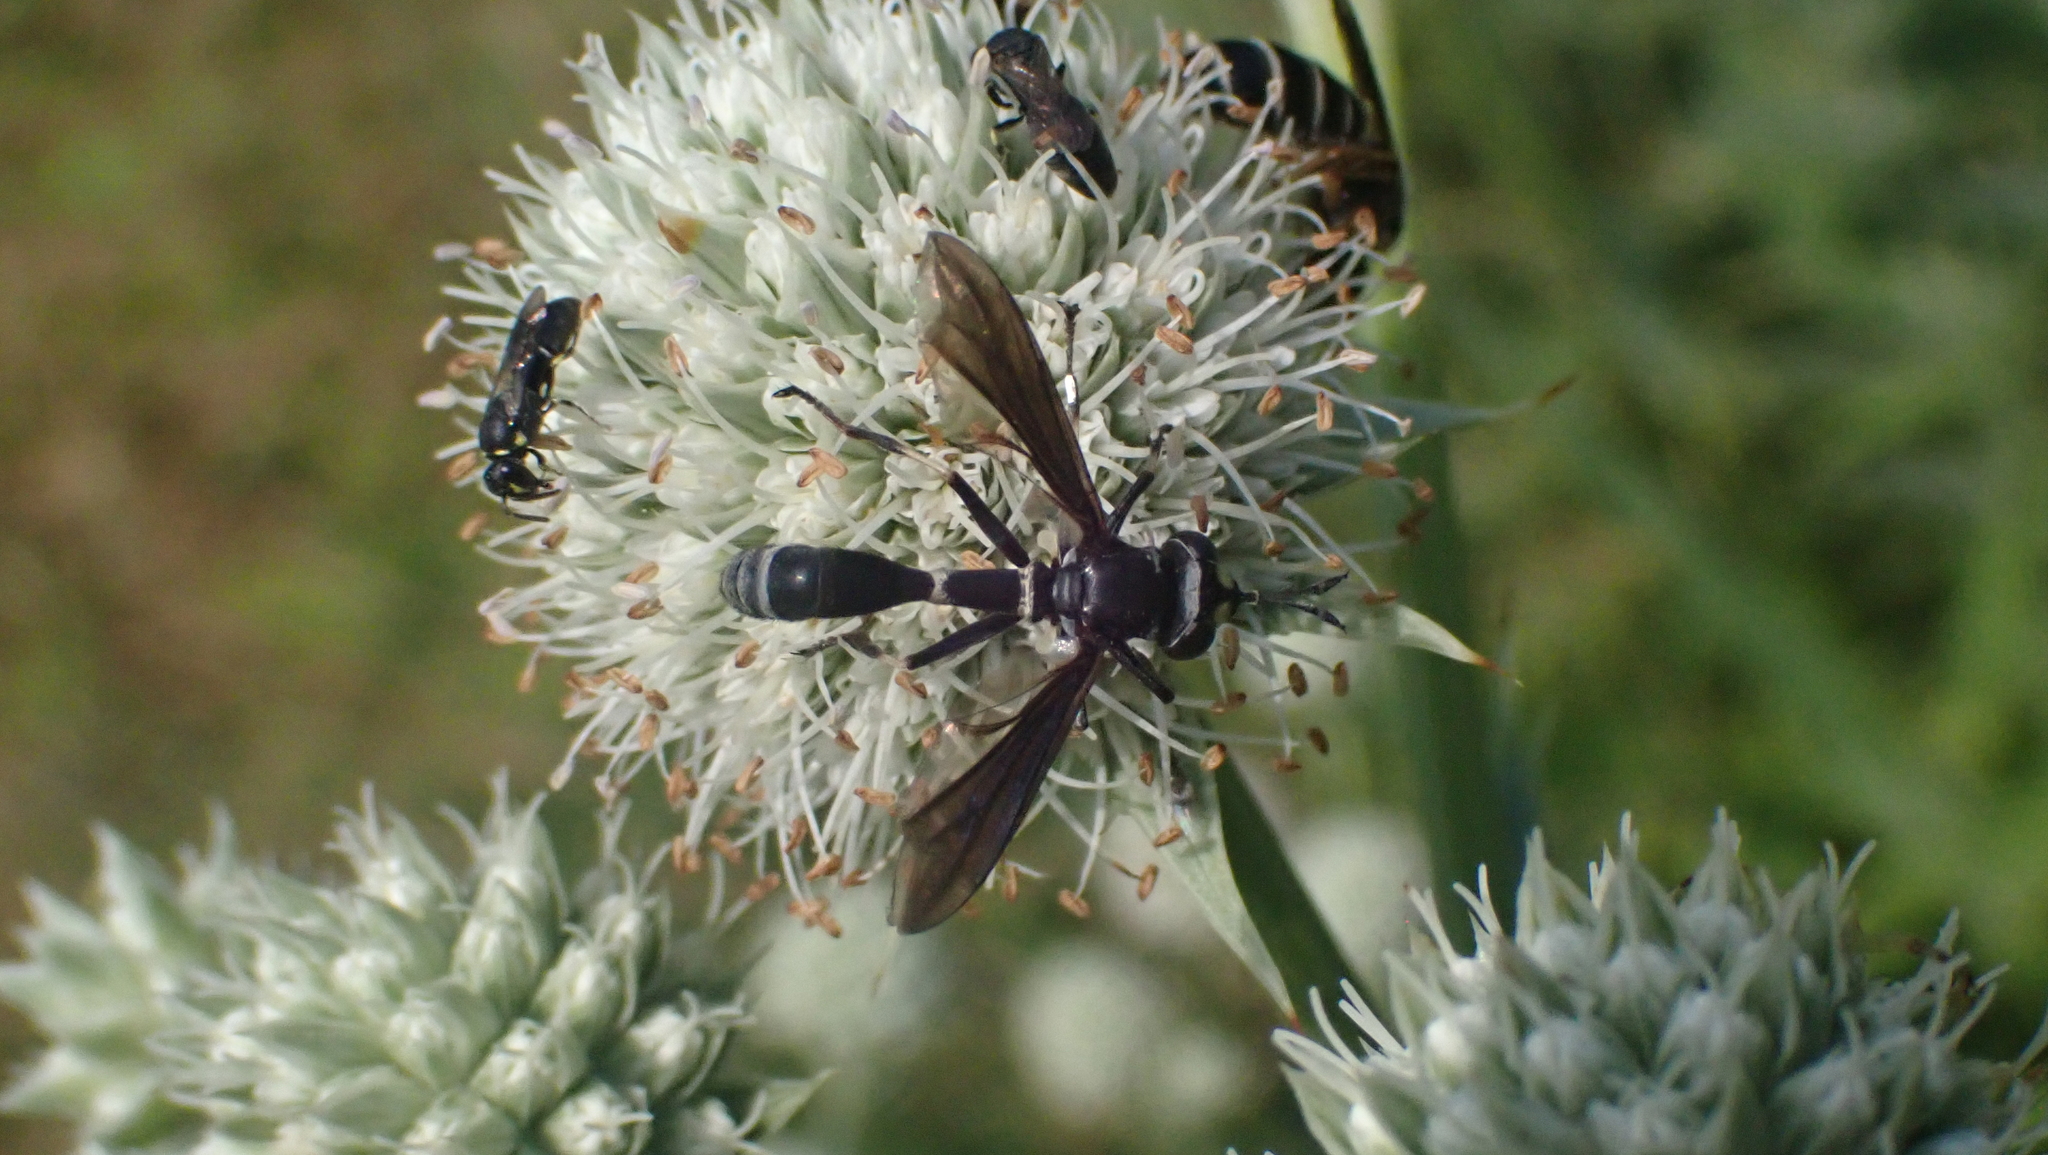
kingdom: Animalia
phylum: Arthropoda
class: Insecta
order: Diptera
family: Conopidae
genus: Physocephala
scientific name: Physocephala tibialis
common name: Common eastern physocephala
